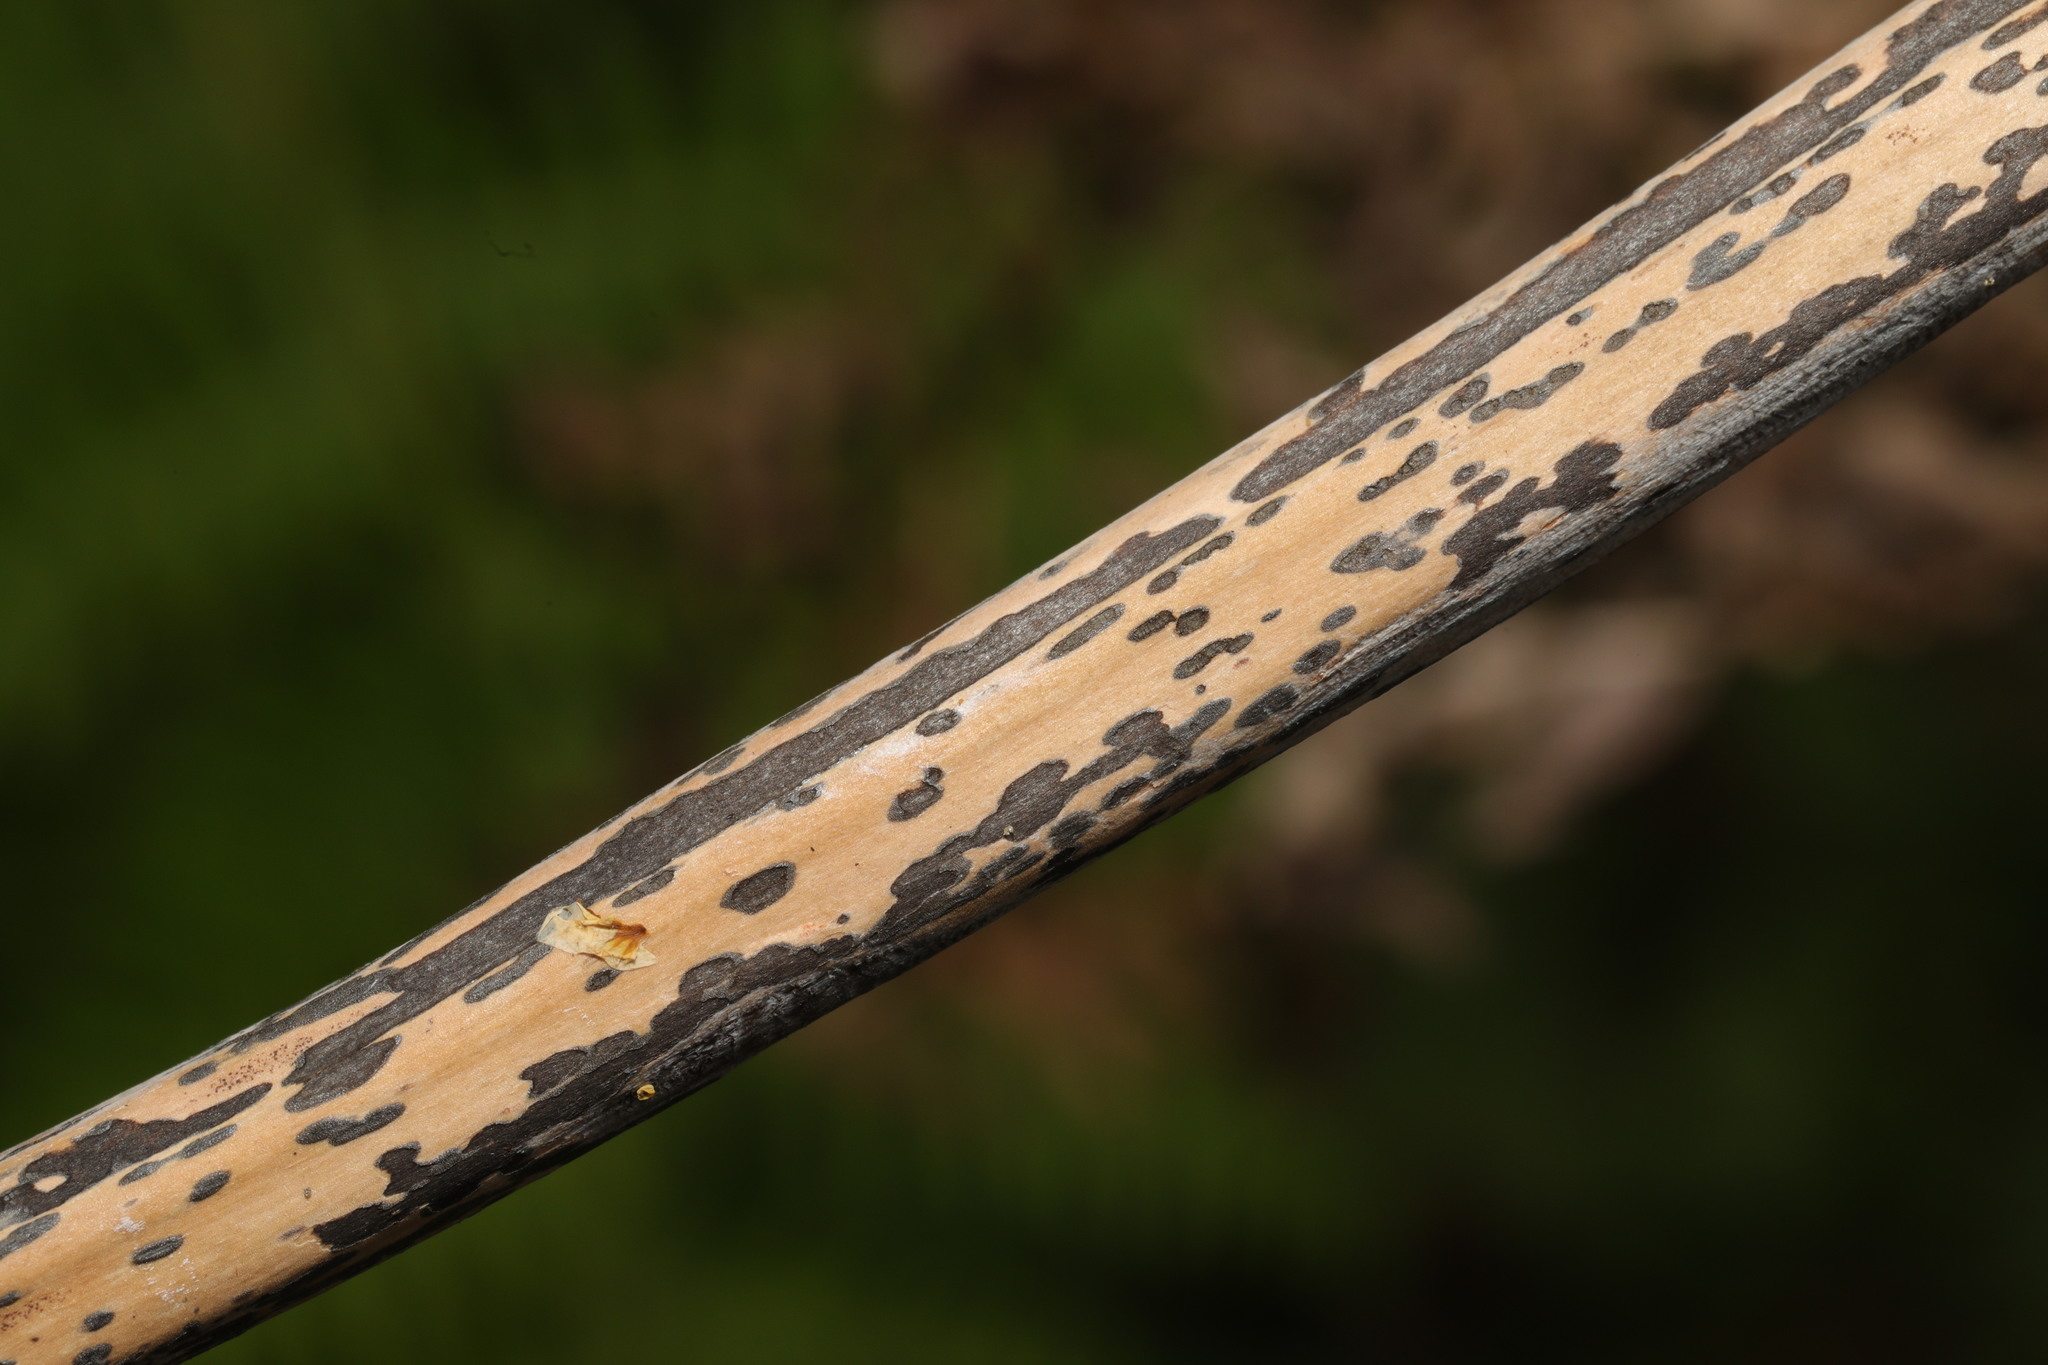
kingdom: Fungi
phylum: Ascomycota
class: Dothideomycetes
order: Pleosporales
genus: Rhopographus
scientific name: Rhopographus filicinus
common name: Bracken map
